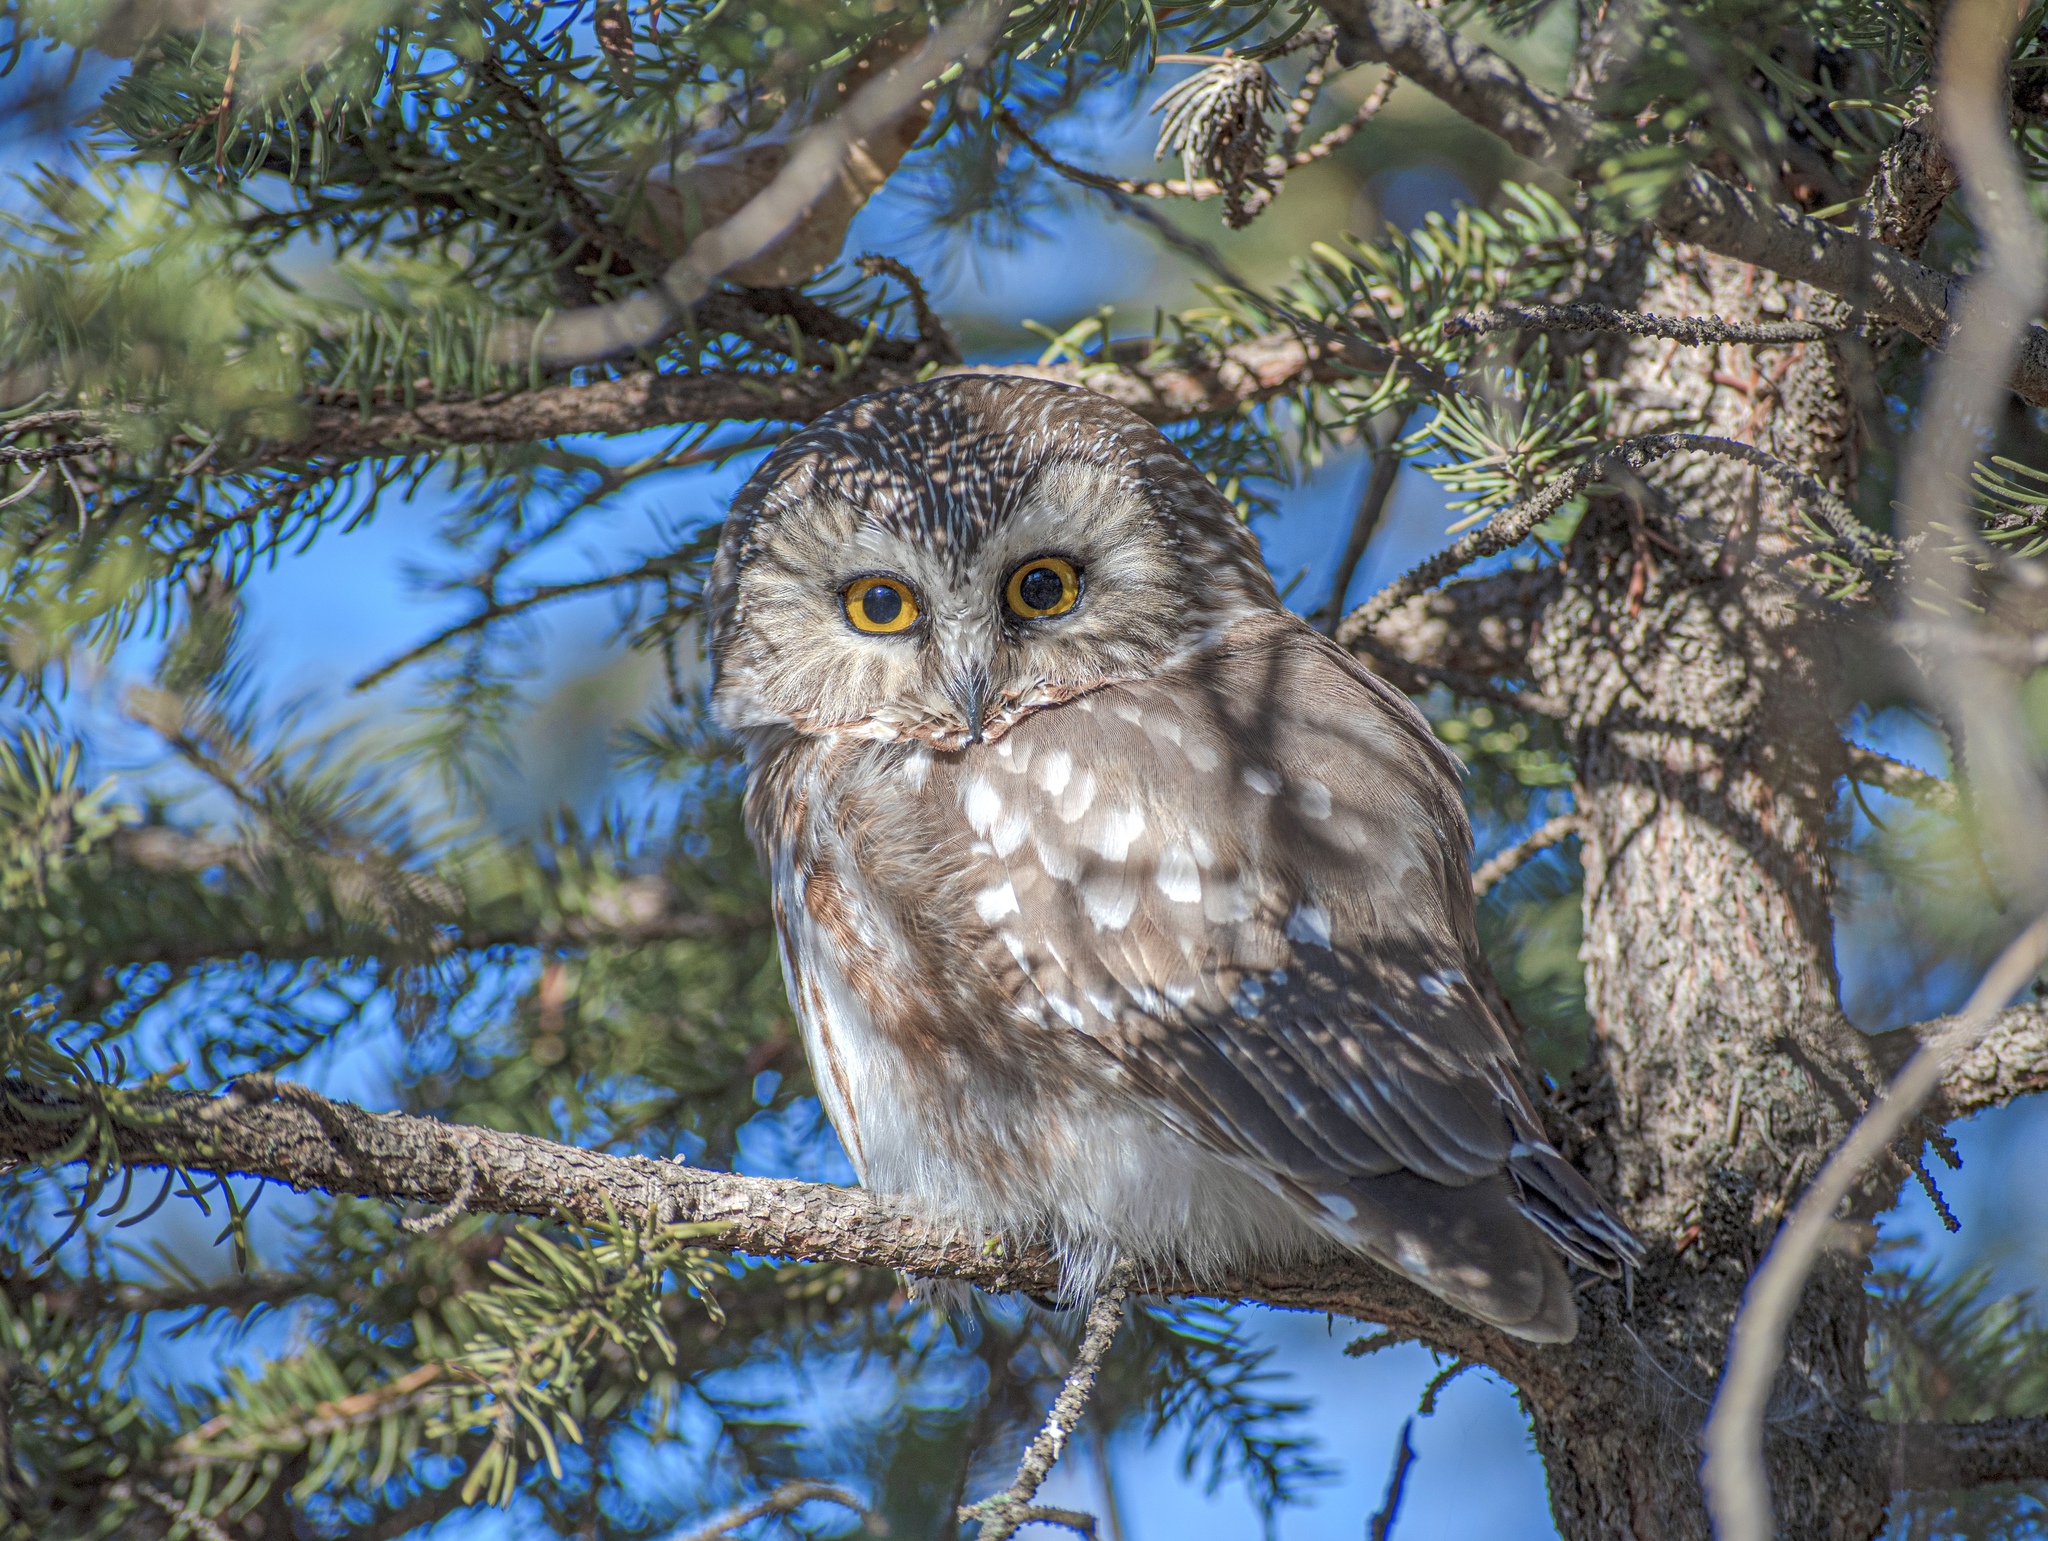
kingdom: Animalia
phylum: Chordata
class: Aves
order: Strigiformes
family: Strigidae
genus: Aegolius
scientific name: Aegolius acadicus
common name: Northern saw-whet owl
